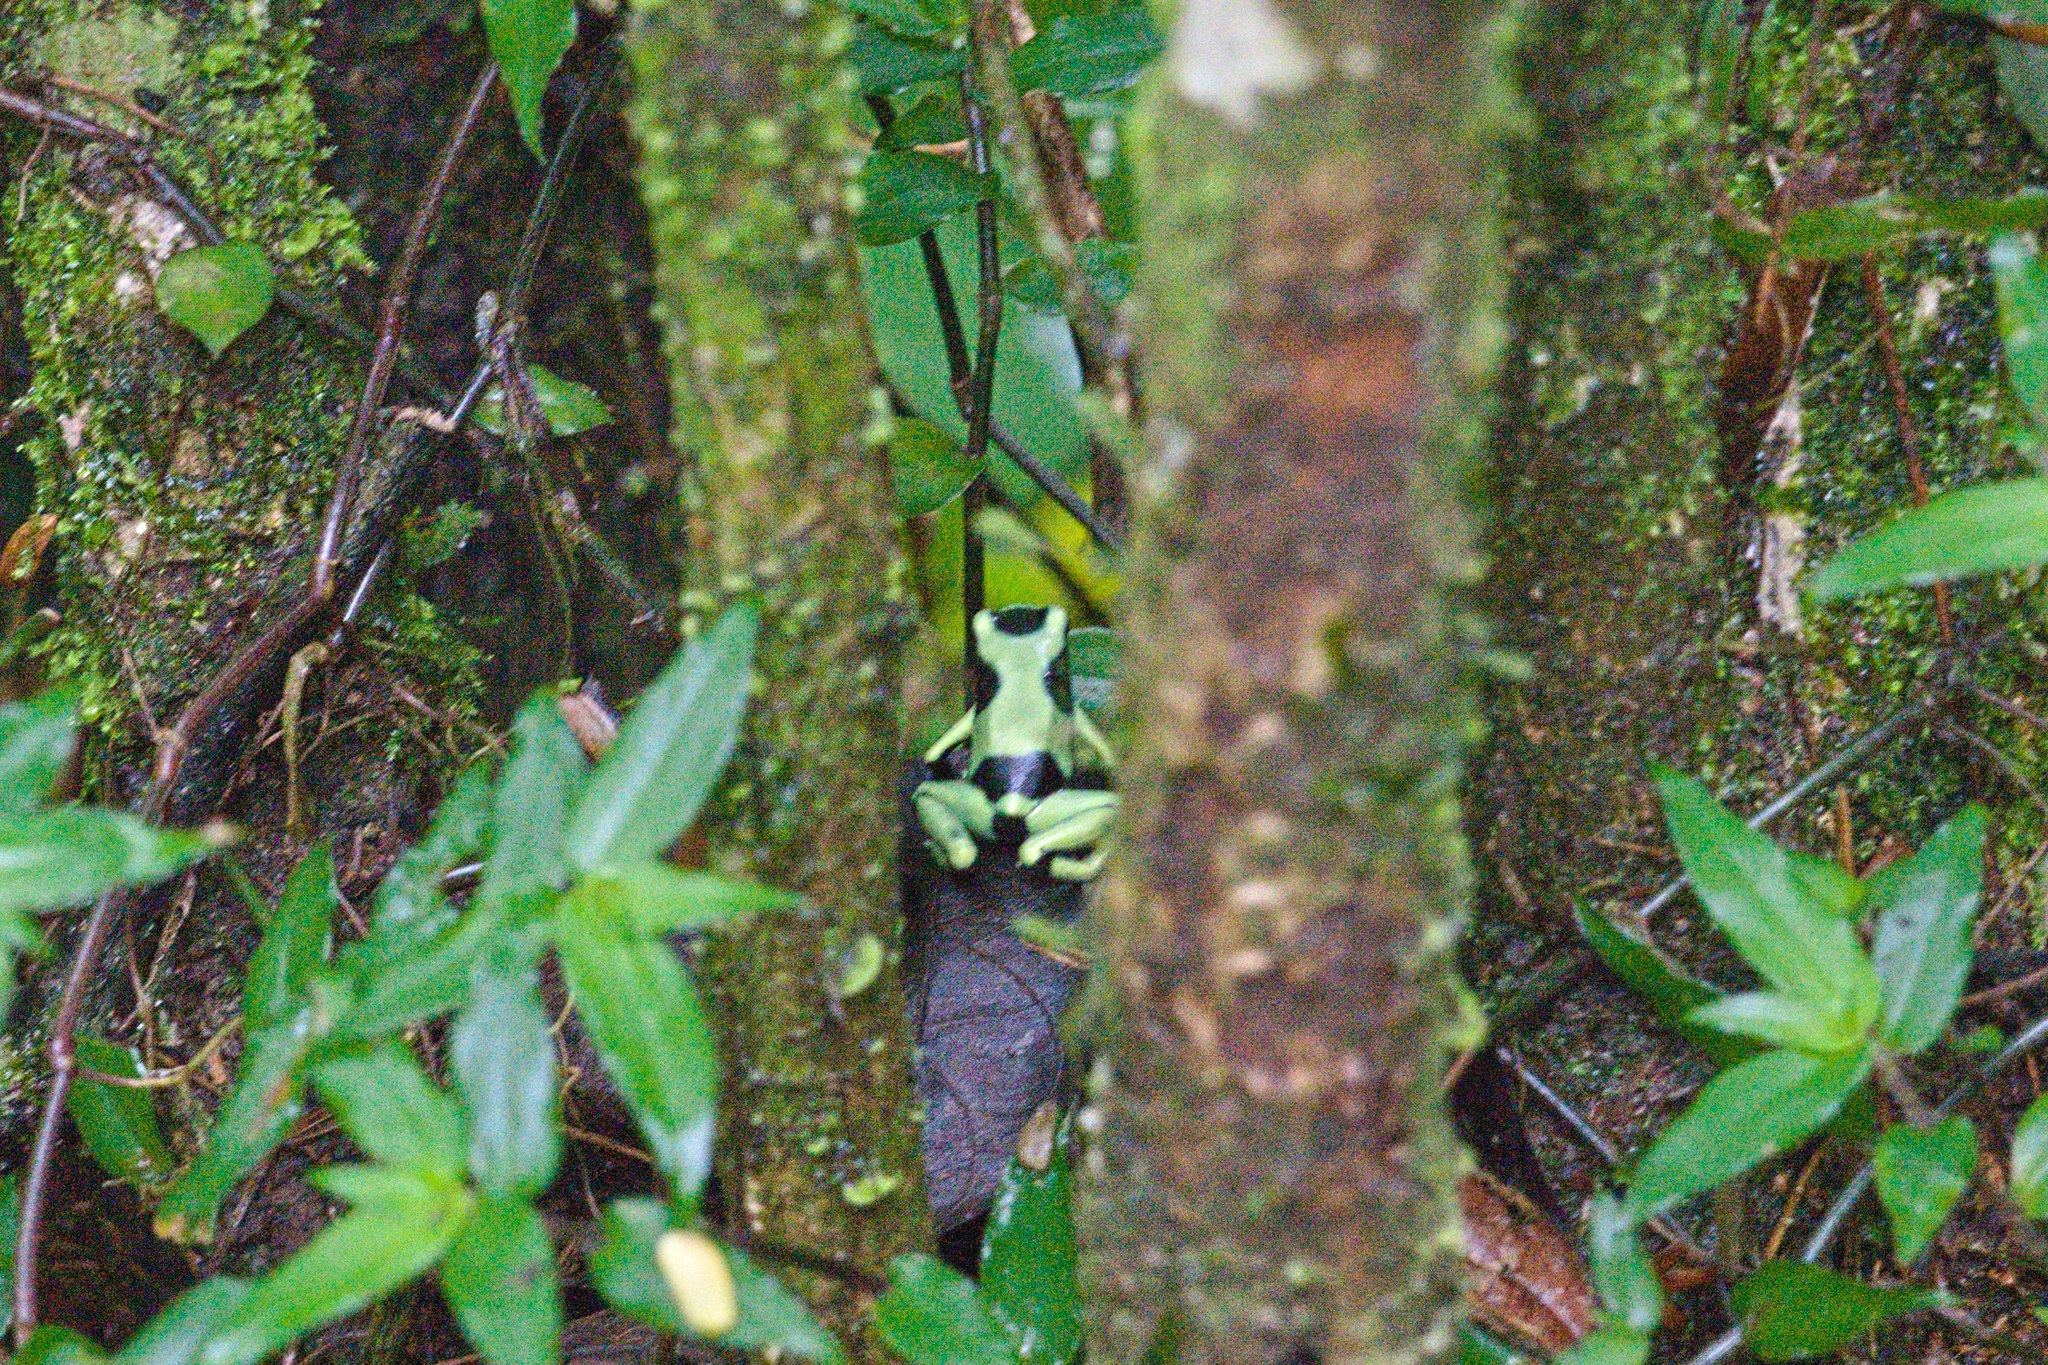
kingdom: Animalia
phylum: Chordata
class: Amphibia
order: Anura
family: Dendrobatidae
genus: Dendrobates
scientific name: Dendrobates auratus
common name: Green and black poison dart frog
